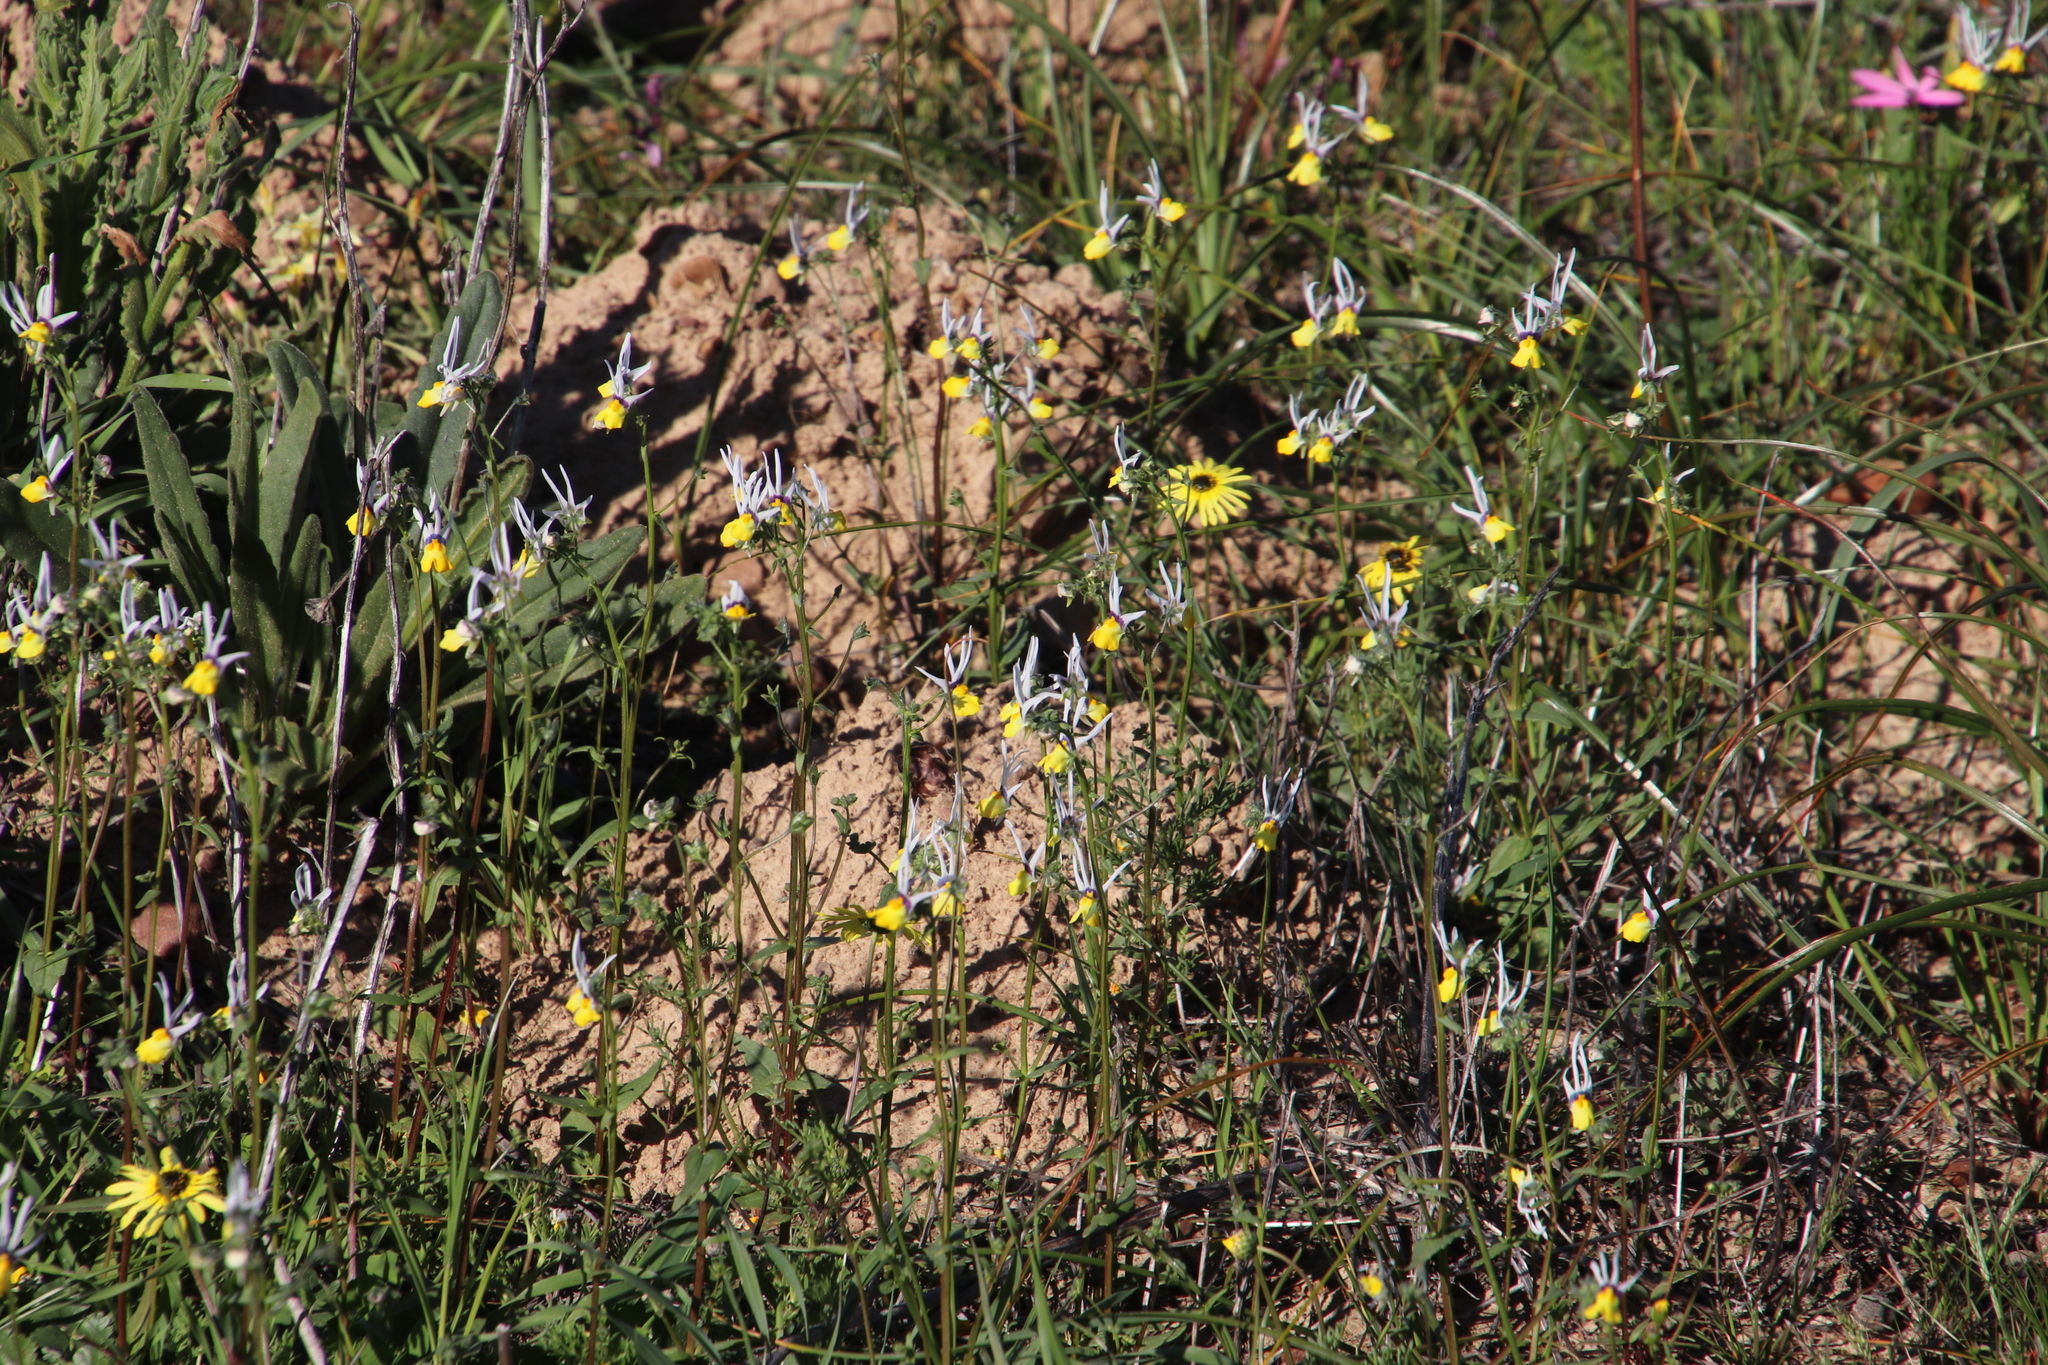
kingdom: Plantae
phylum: Tracheophyta
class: Magnoliopsida
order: Lamiales
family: Scrophulariaceae
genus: Nemesia
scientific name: Nemesia cheiranthus
